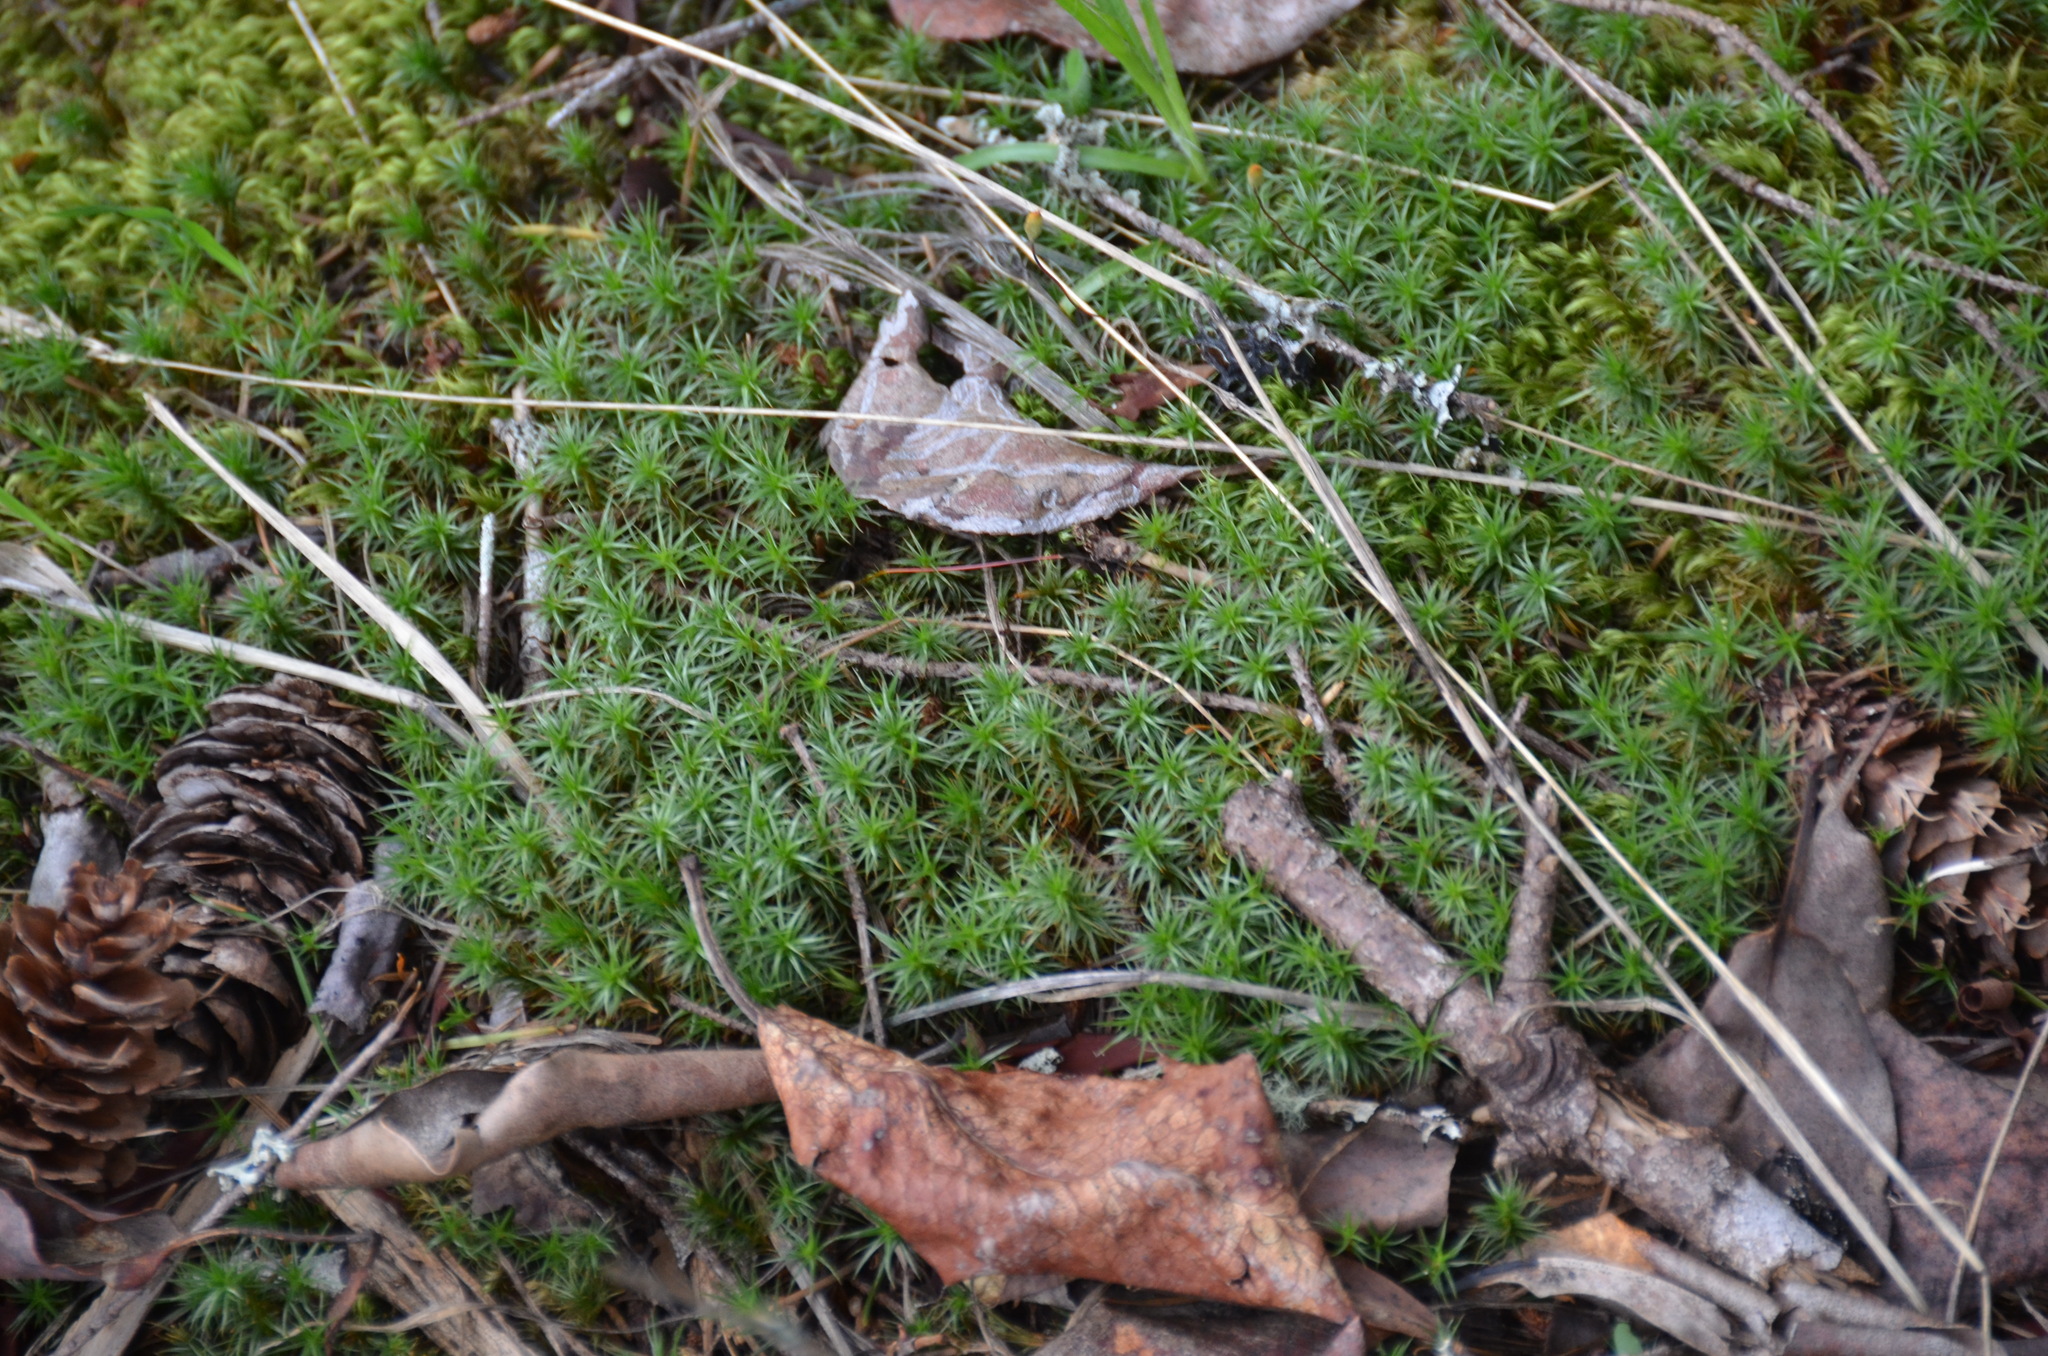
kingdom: Plantae
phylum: Bryophyta
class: Polytrichopsida
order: Polytrichales
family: Polytrichaceae
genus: Polytrichum
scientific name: Polytrichum juniperinum
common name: Juniper haircap moss
